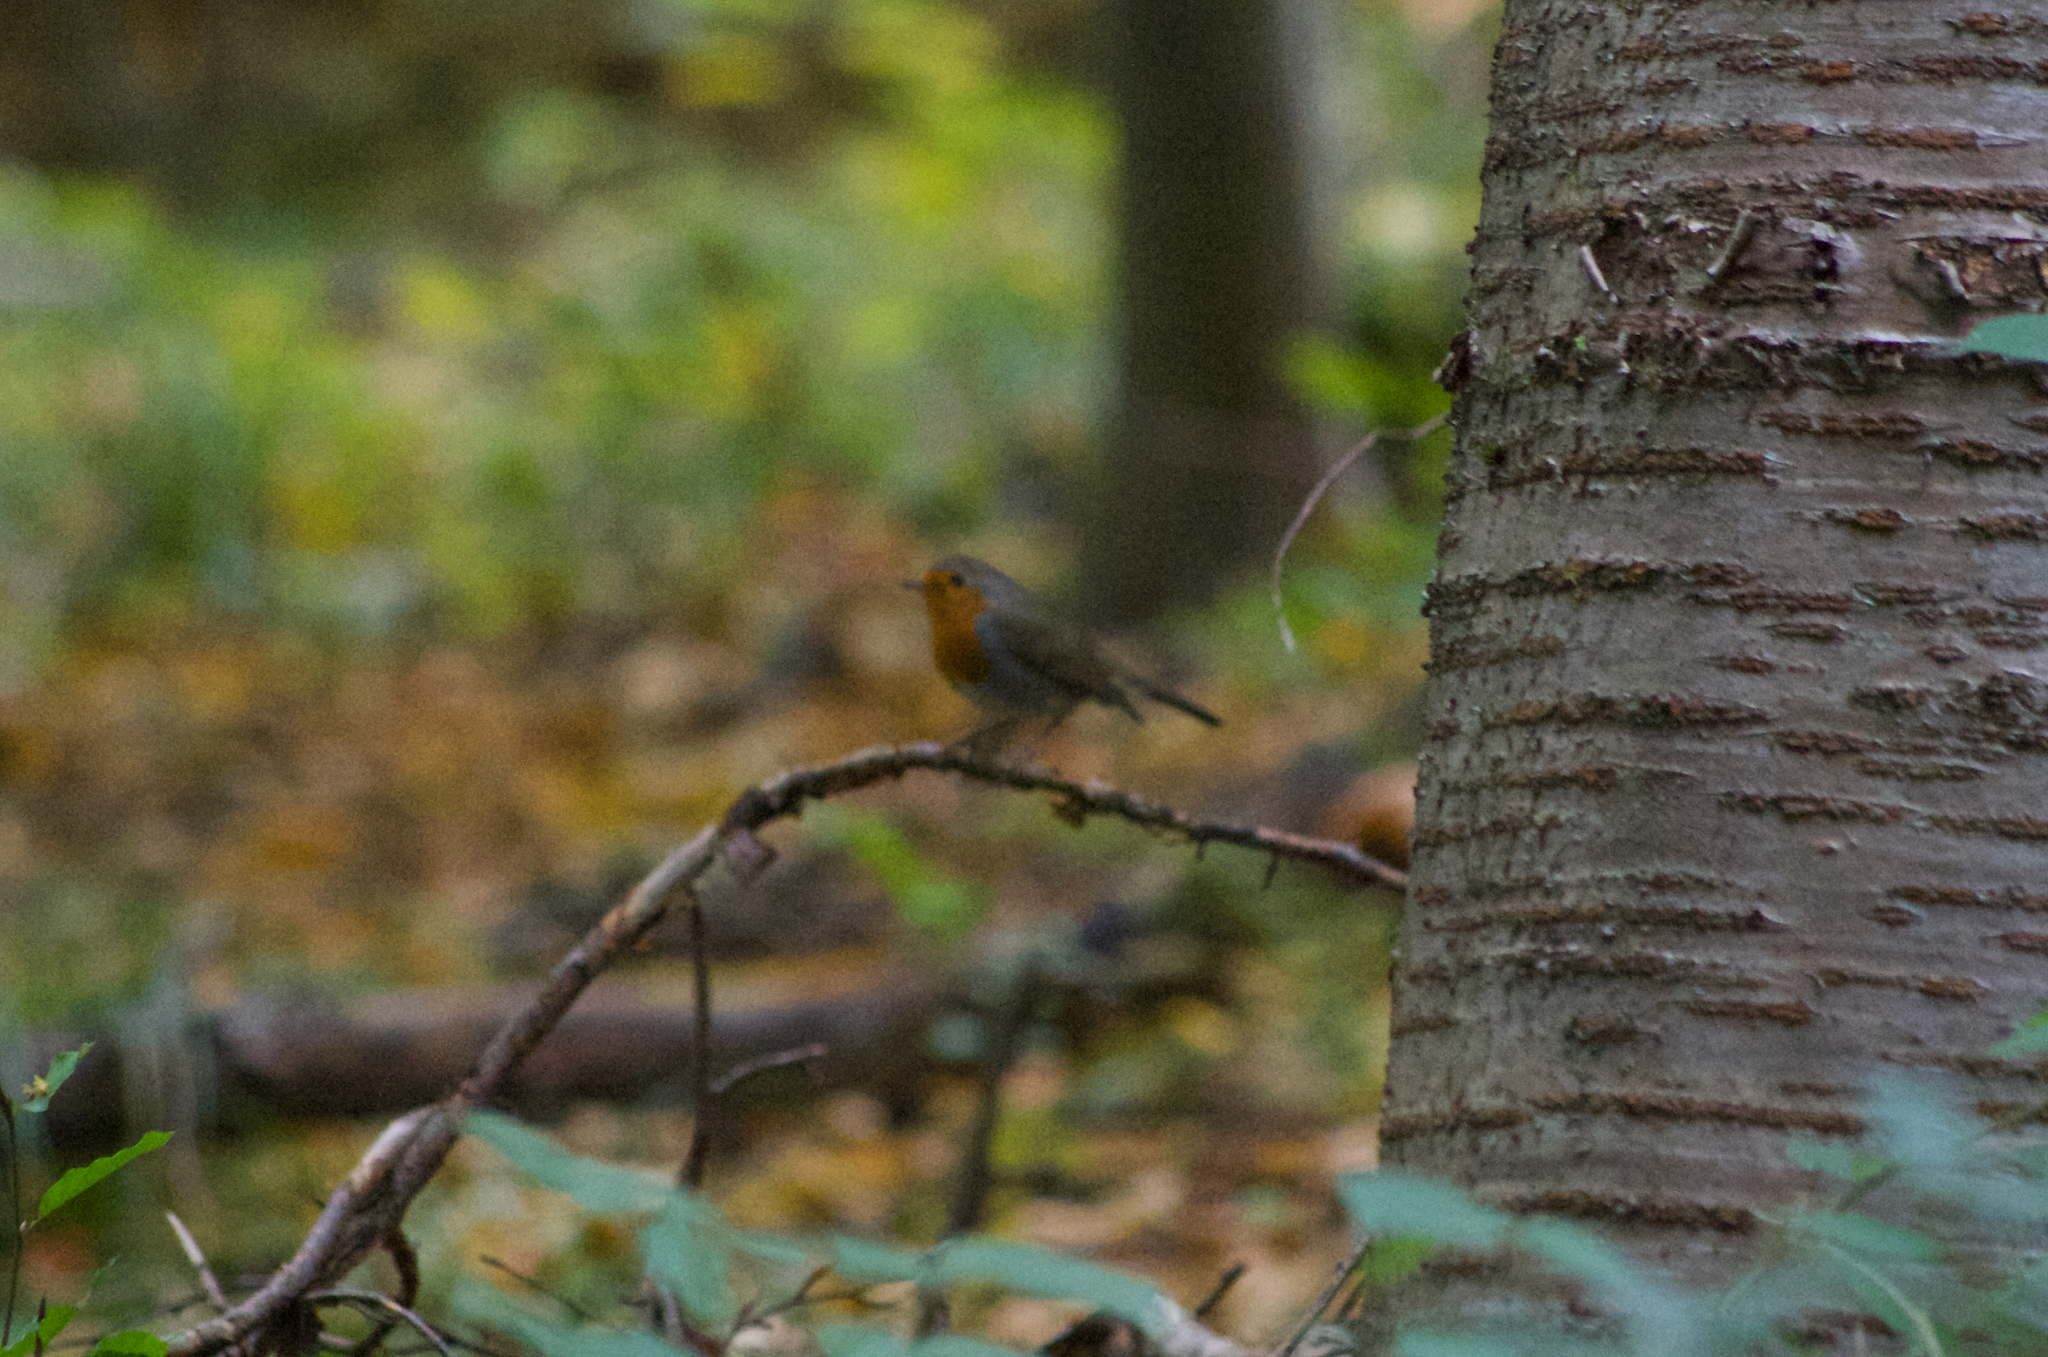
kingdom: Animalia
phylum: Chordata
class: Aves
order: Passeriformes
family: Muscicapidae
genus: Erithacus
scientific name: Erithacus rubecula
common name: European robin
